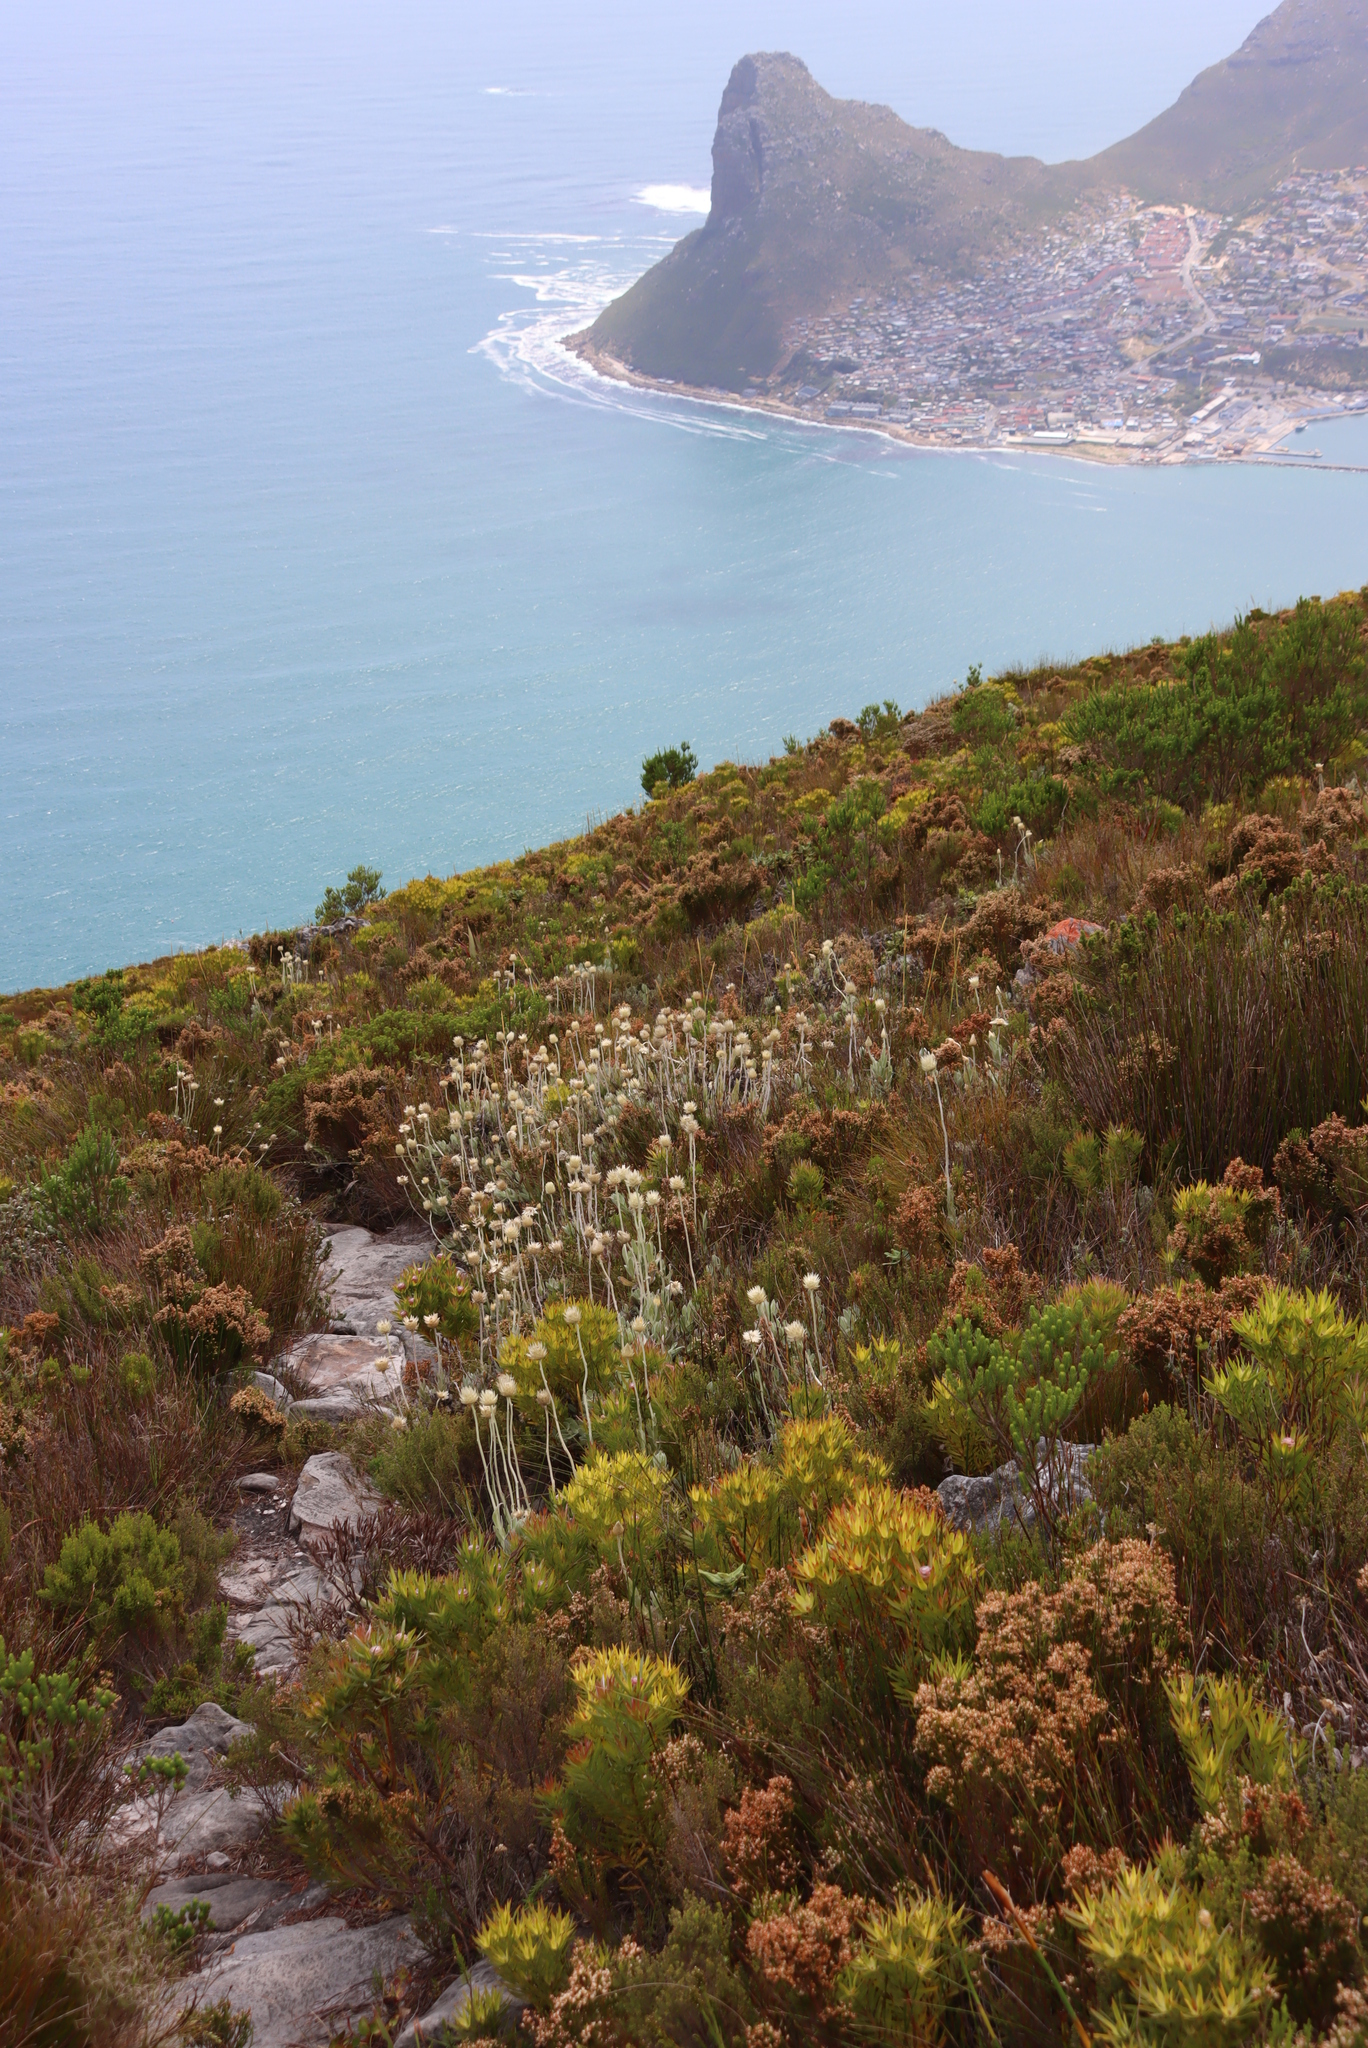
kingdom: Plantae
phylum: Tracheophyta
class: Magnoliopsida
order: Asterales
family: Asteraceae
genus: Syncarpha
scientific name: Syncarpha speciosissima
